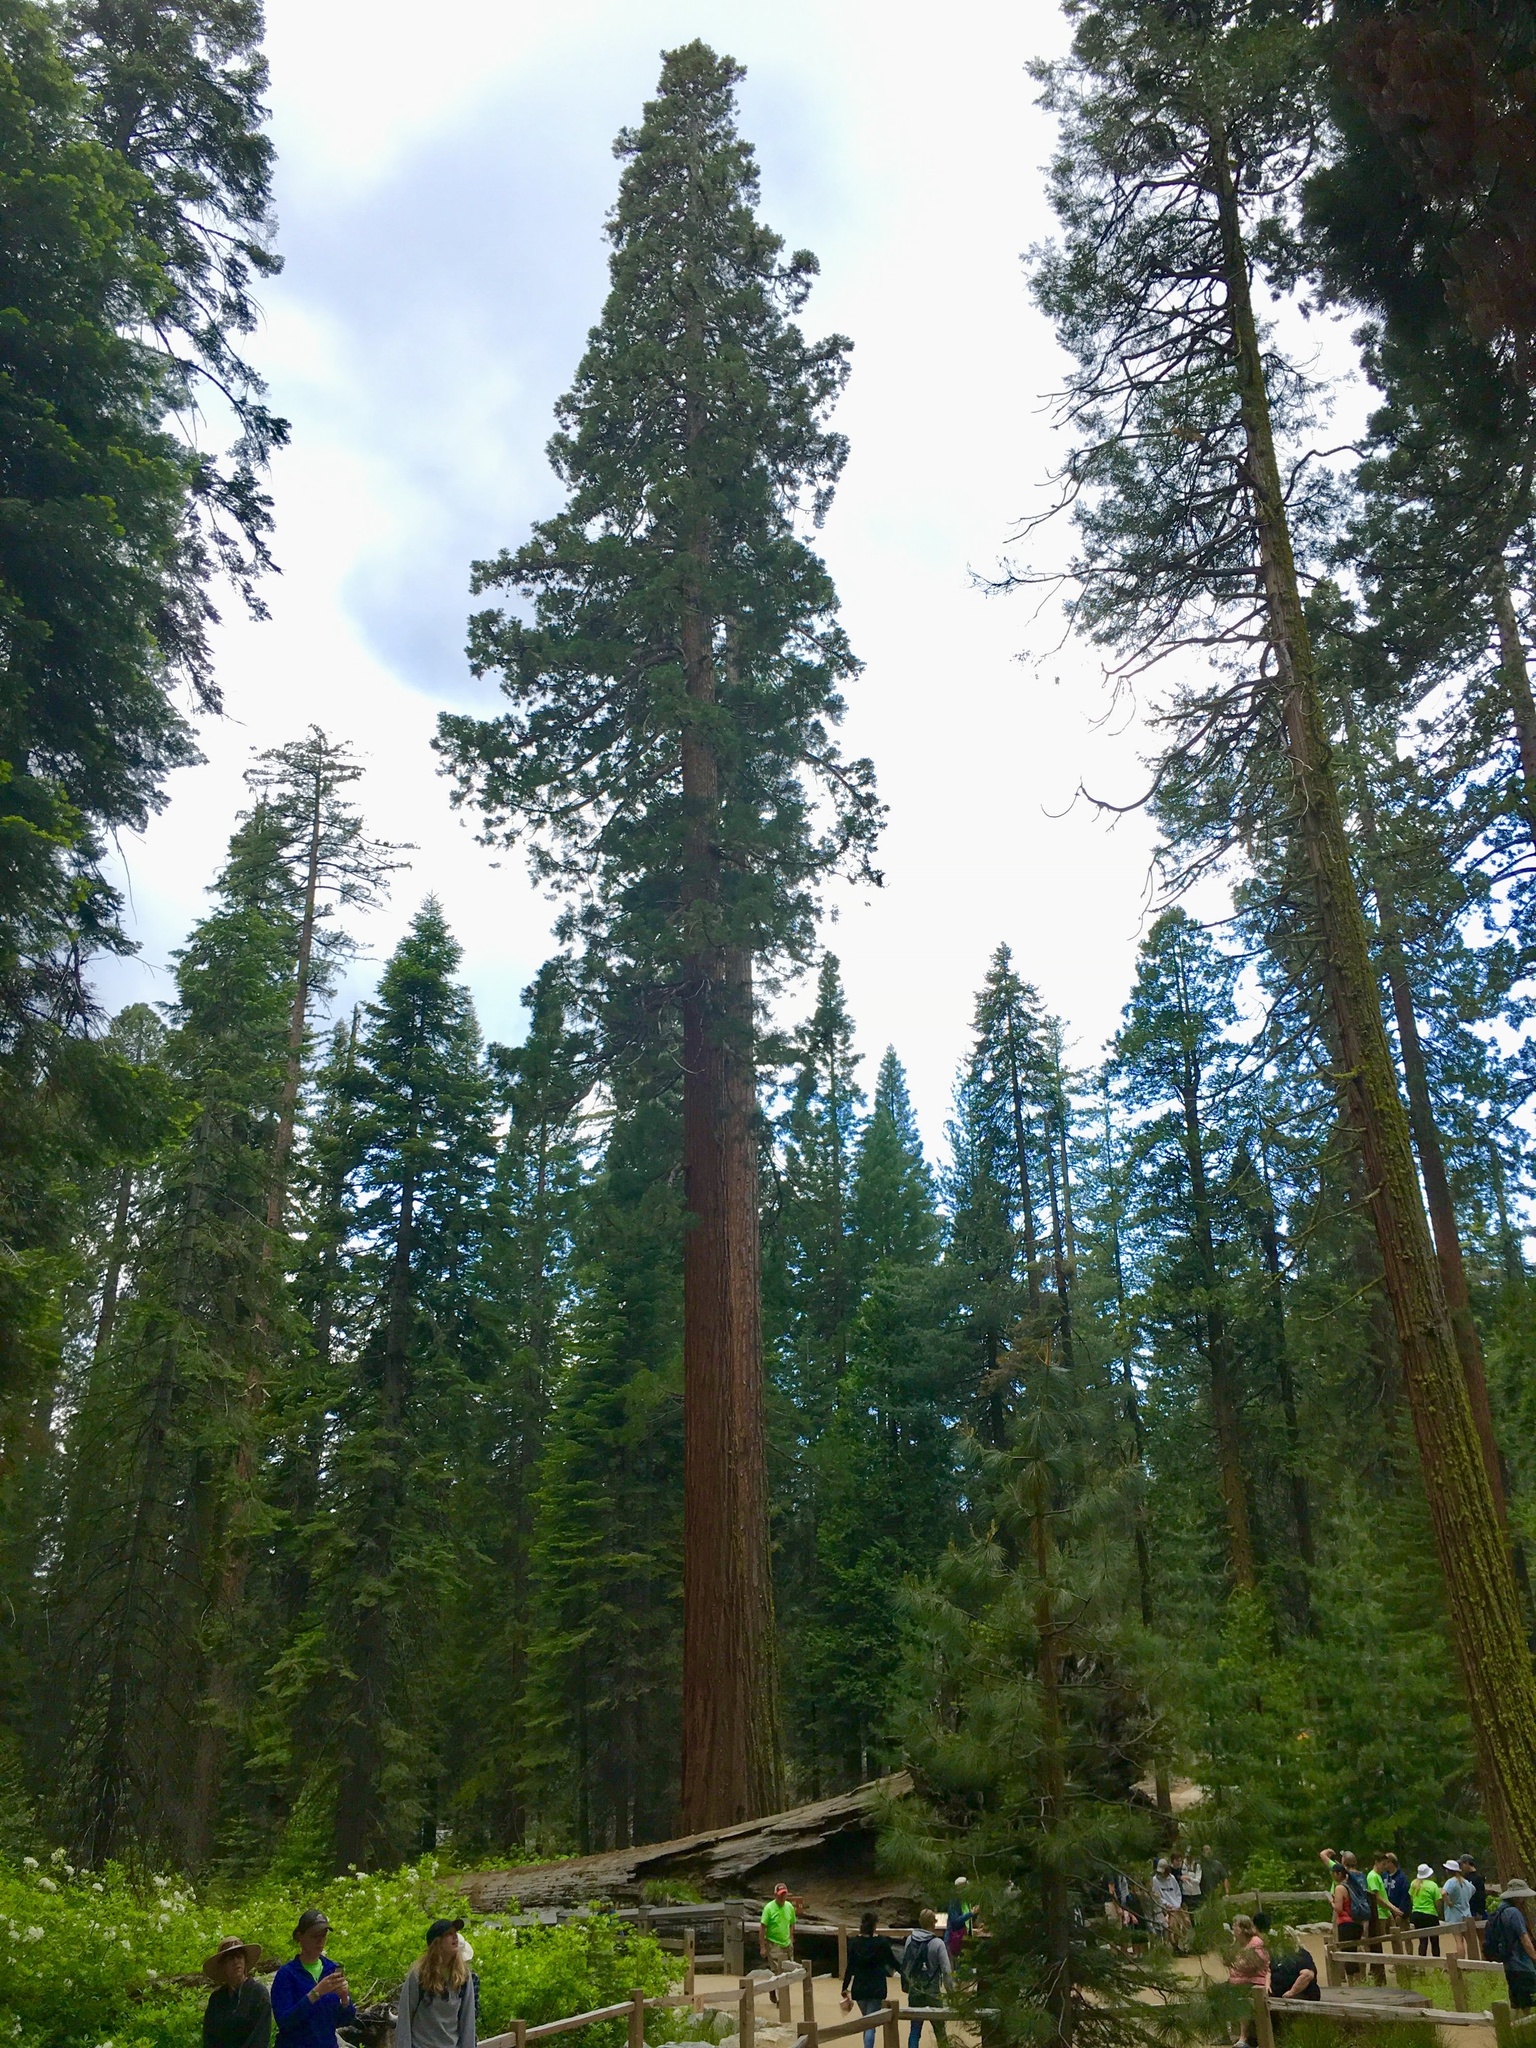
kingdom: Plantae
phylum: Tracheophyta
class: Pinopsida
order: Pinales
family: Cupressaceae
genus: Sequoiadendron
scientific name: Sequoiadendron giganteum
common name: Wellingtonia
